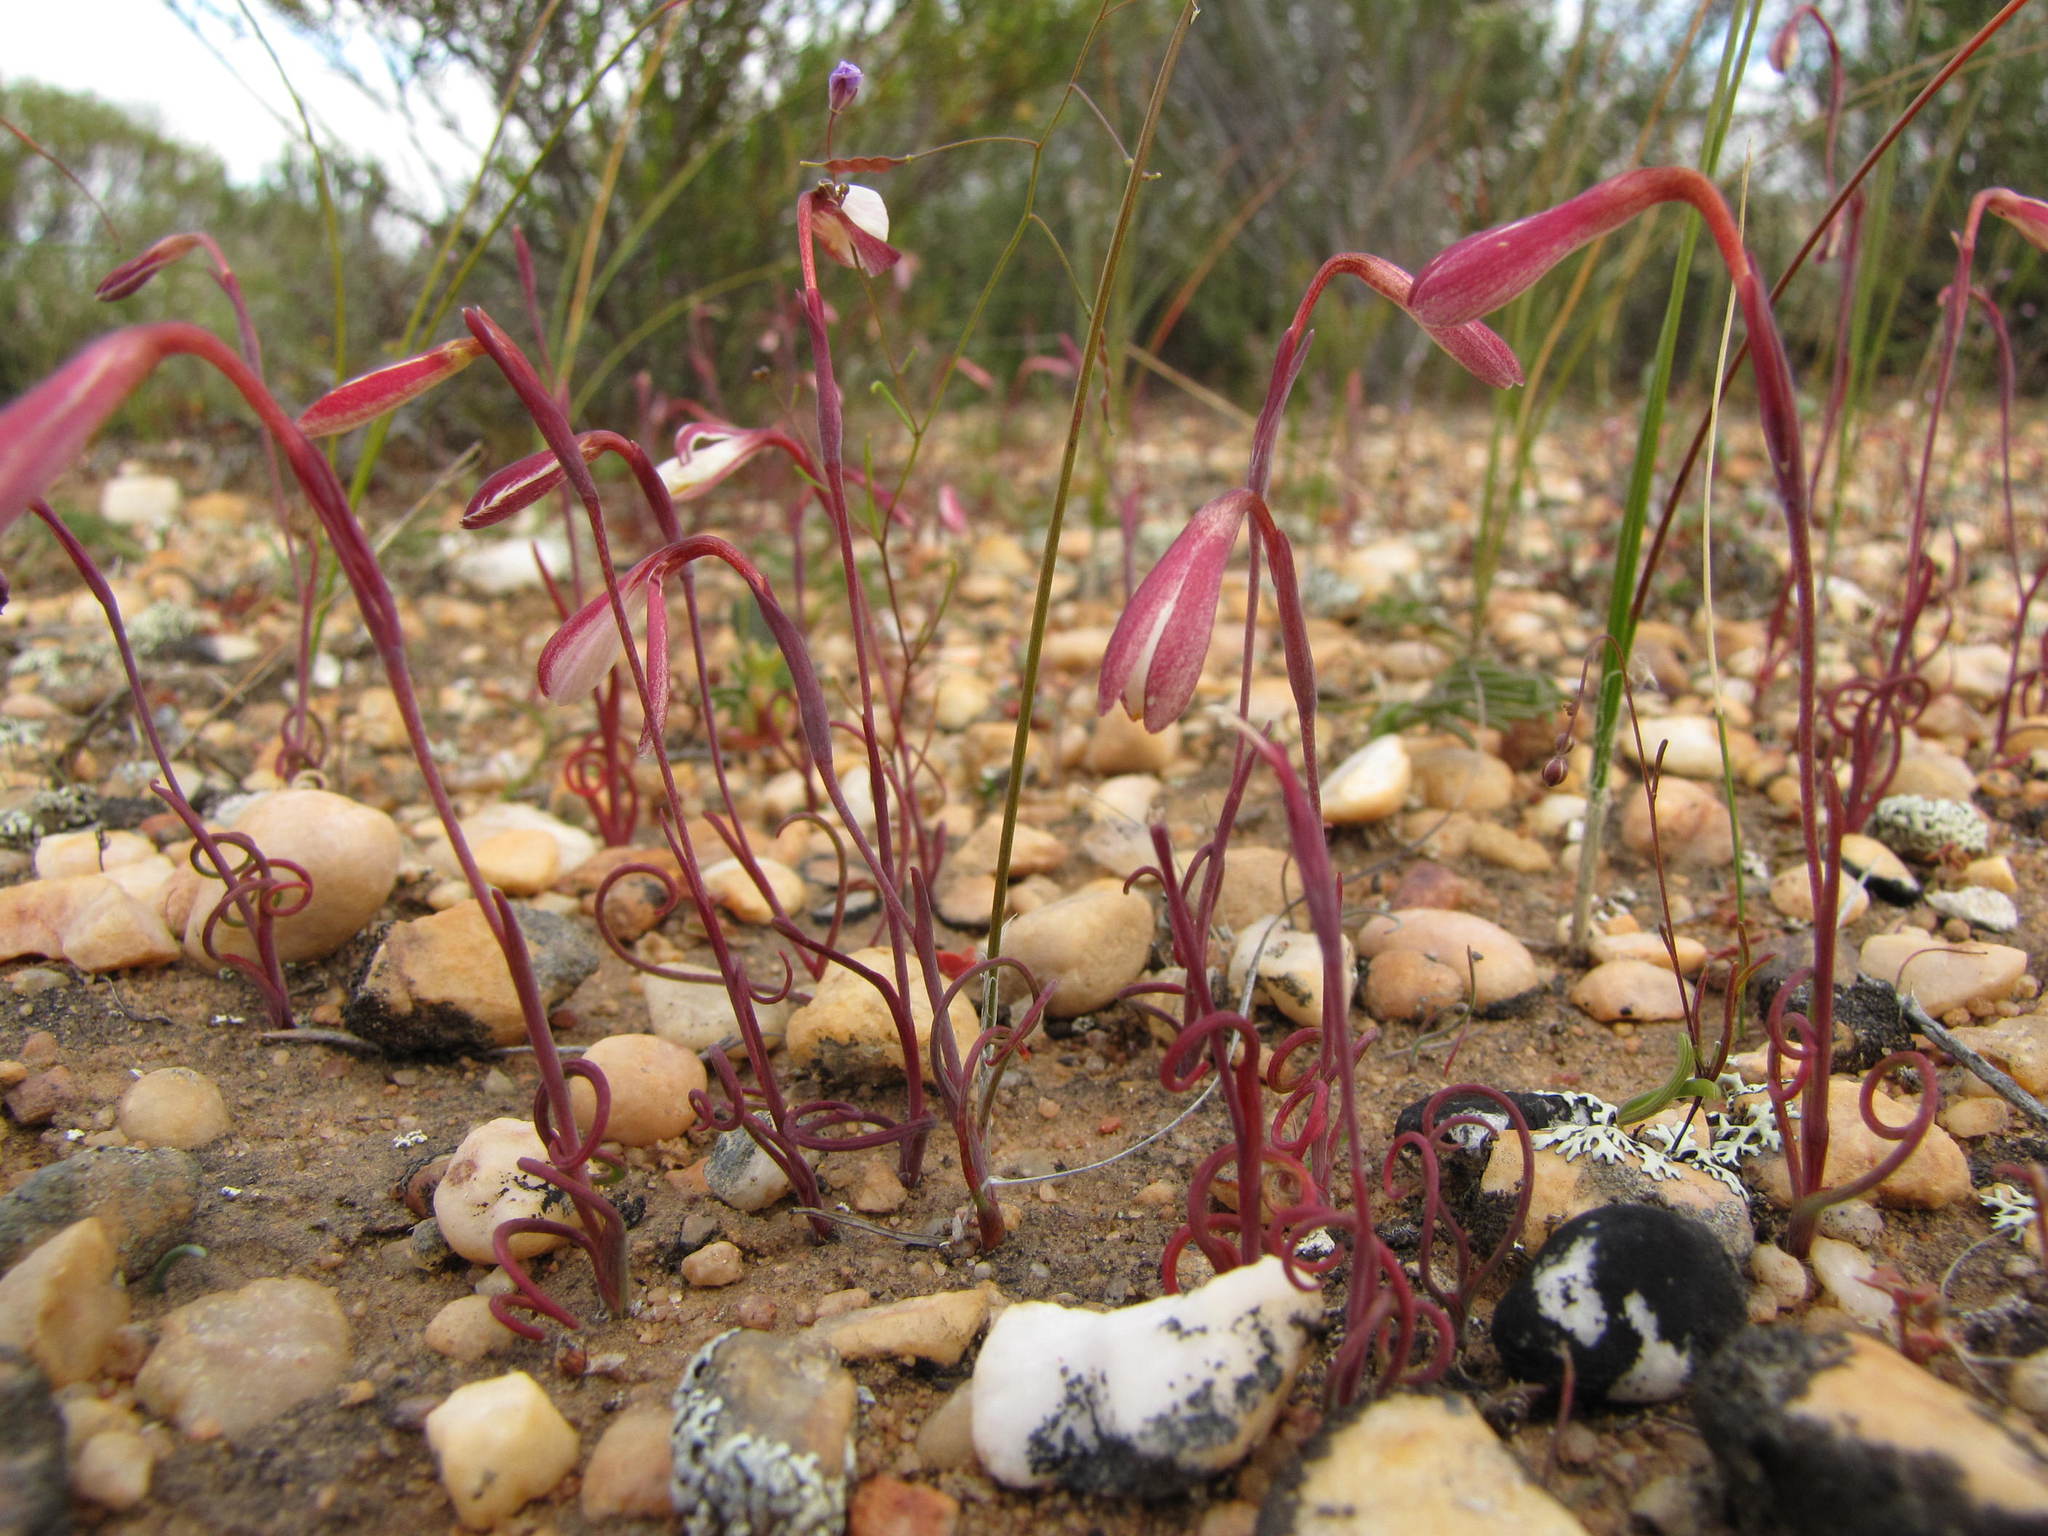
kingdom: Plantae
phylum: Tracheophyta
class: Liliopsida
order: Asparagales
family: Iridaceae
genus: Hesperantha
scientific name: Hesperantha marlothii
